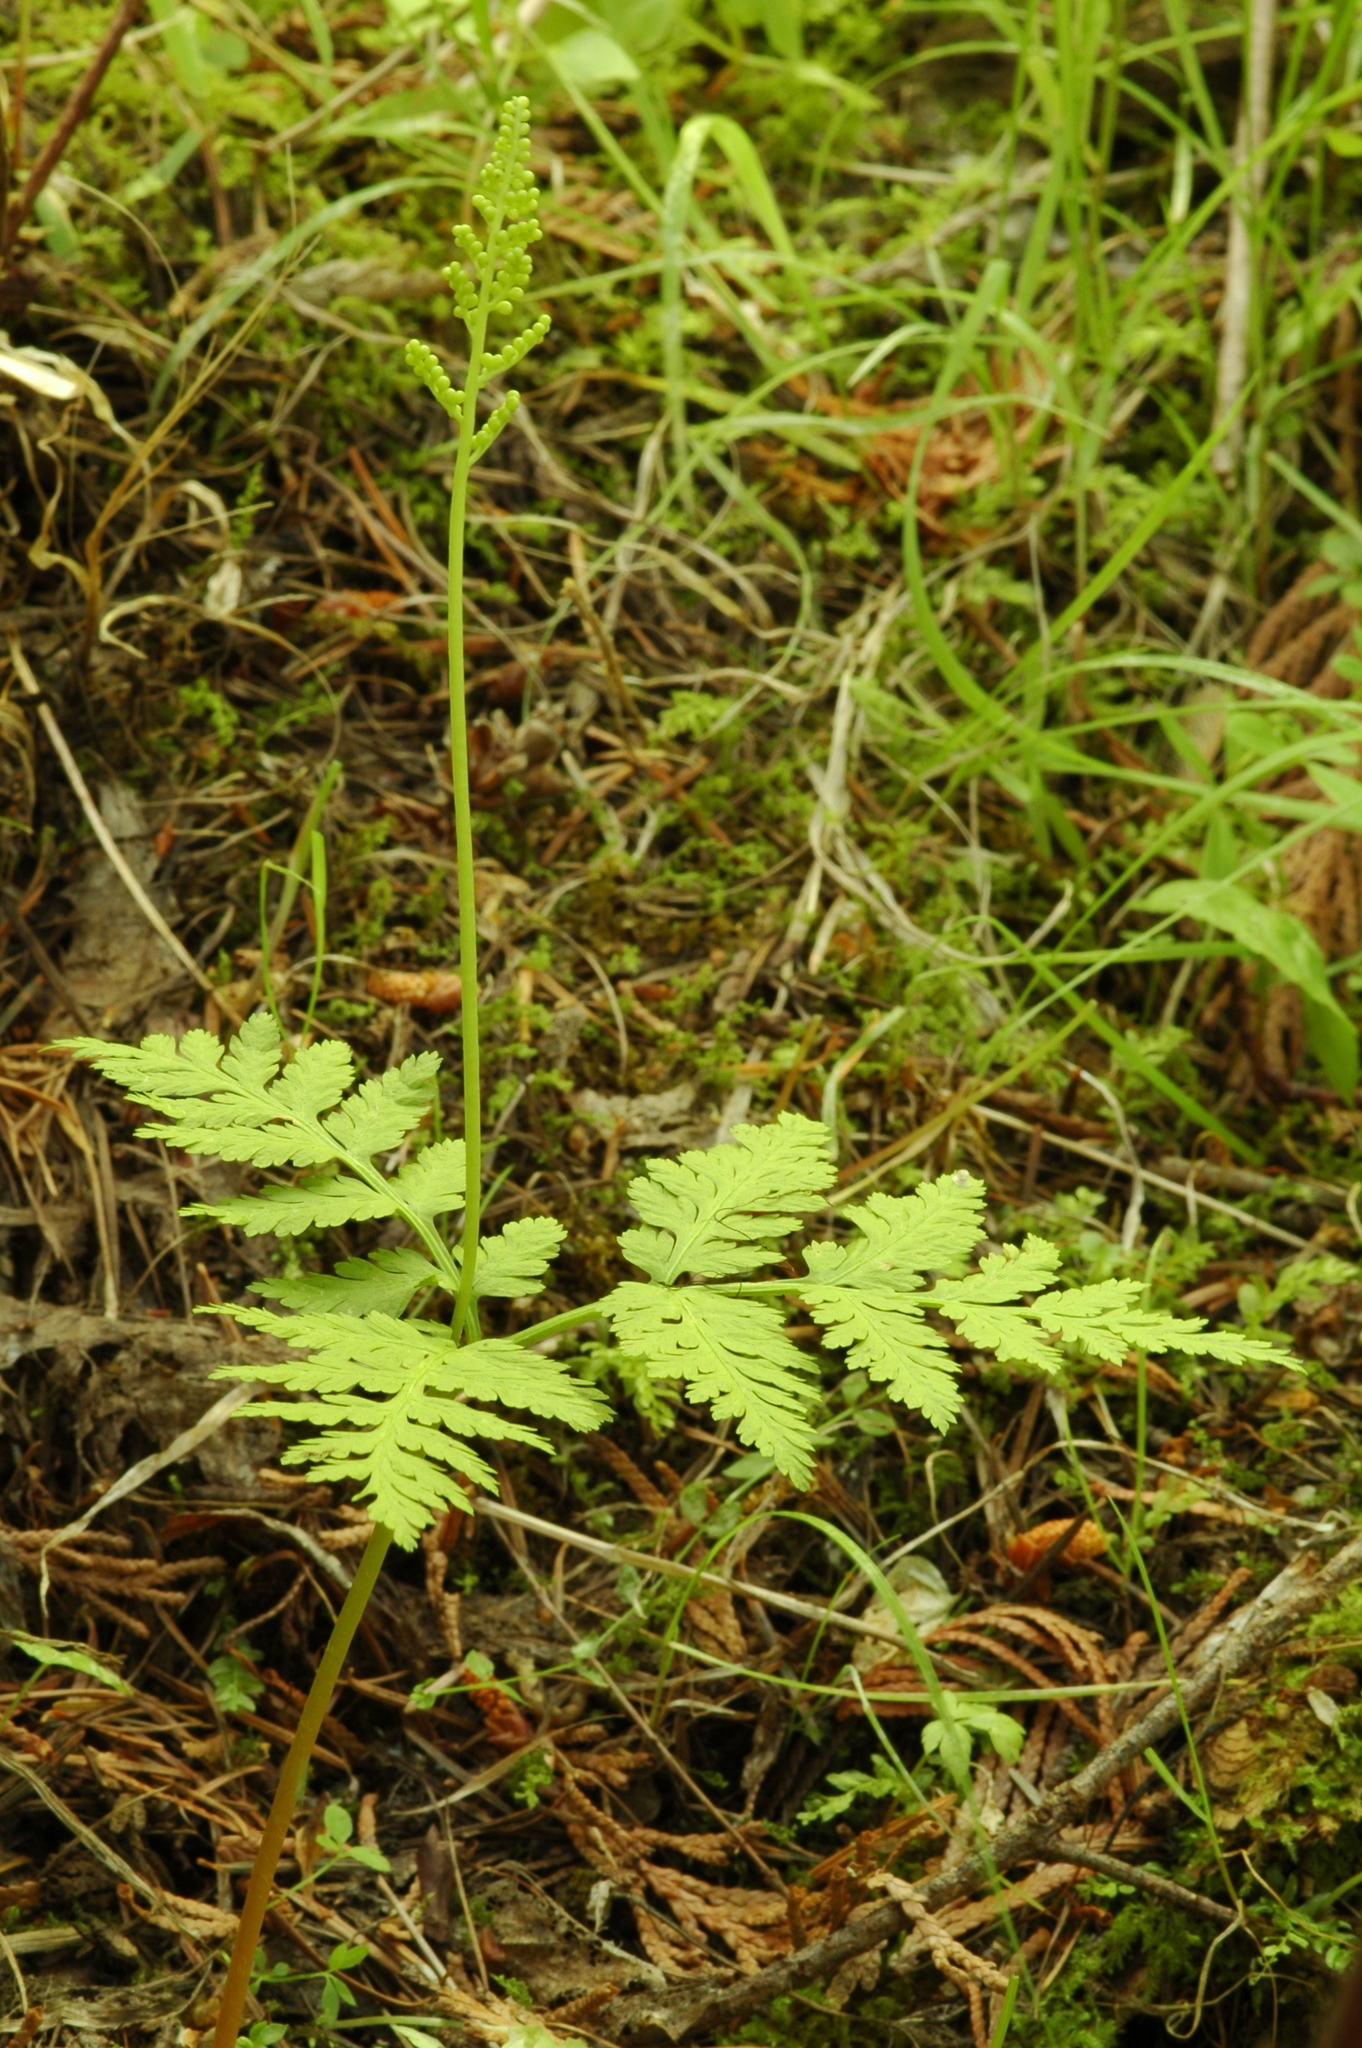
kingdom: Plantae
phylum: Tracheophyta
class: Polypodiopsida
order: Ophioglossales
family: Ophioglossaceae
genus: Botrypus
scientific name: Botrypus virginianus
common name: Common grapefern
